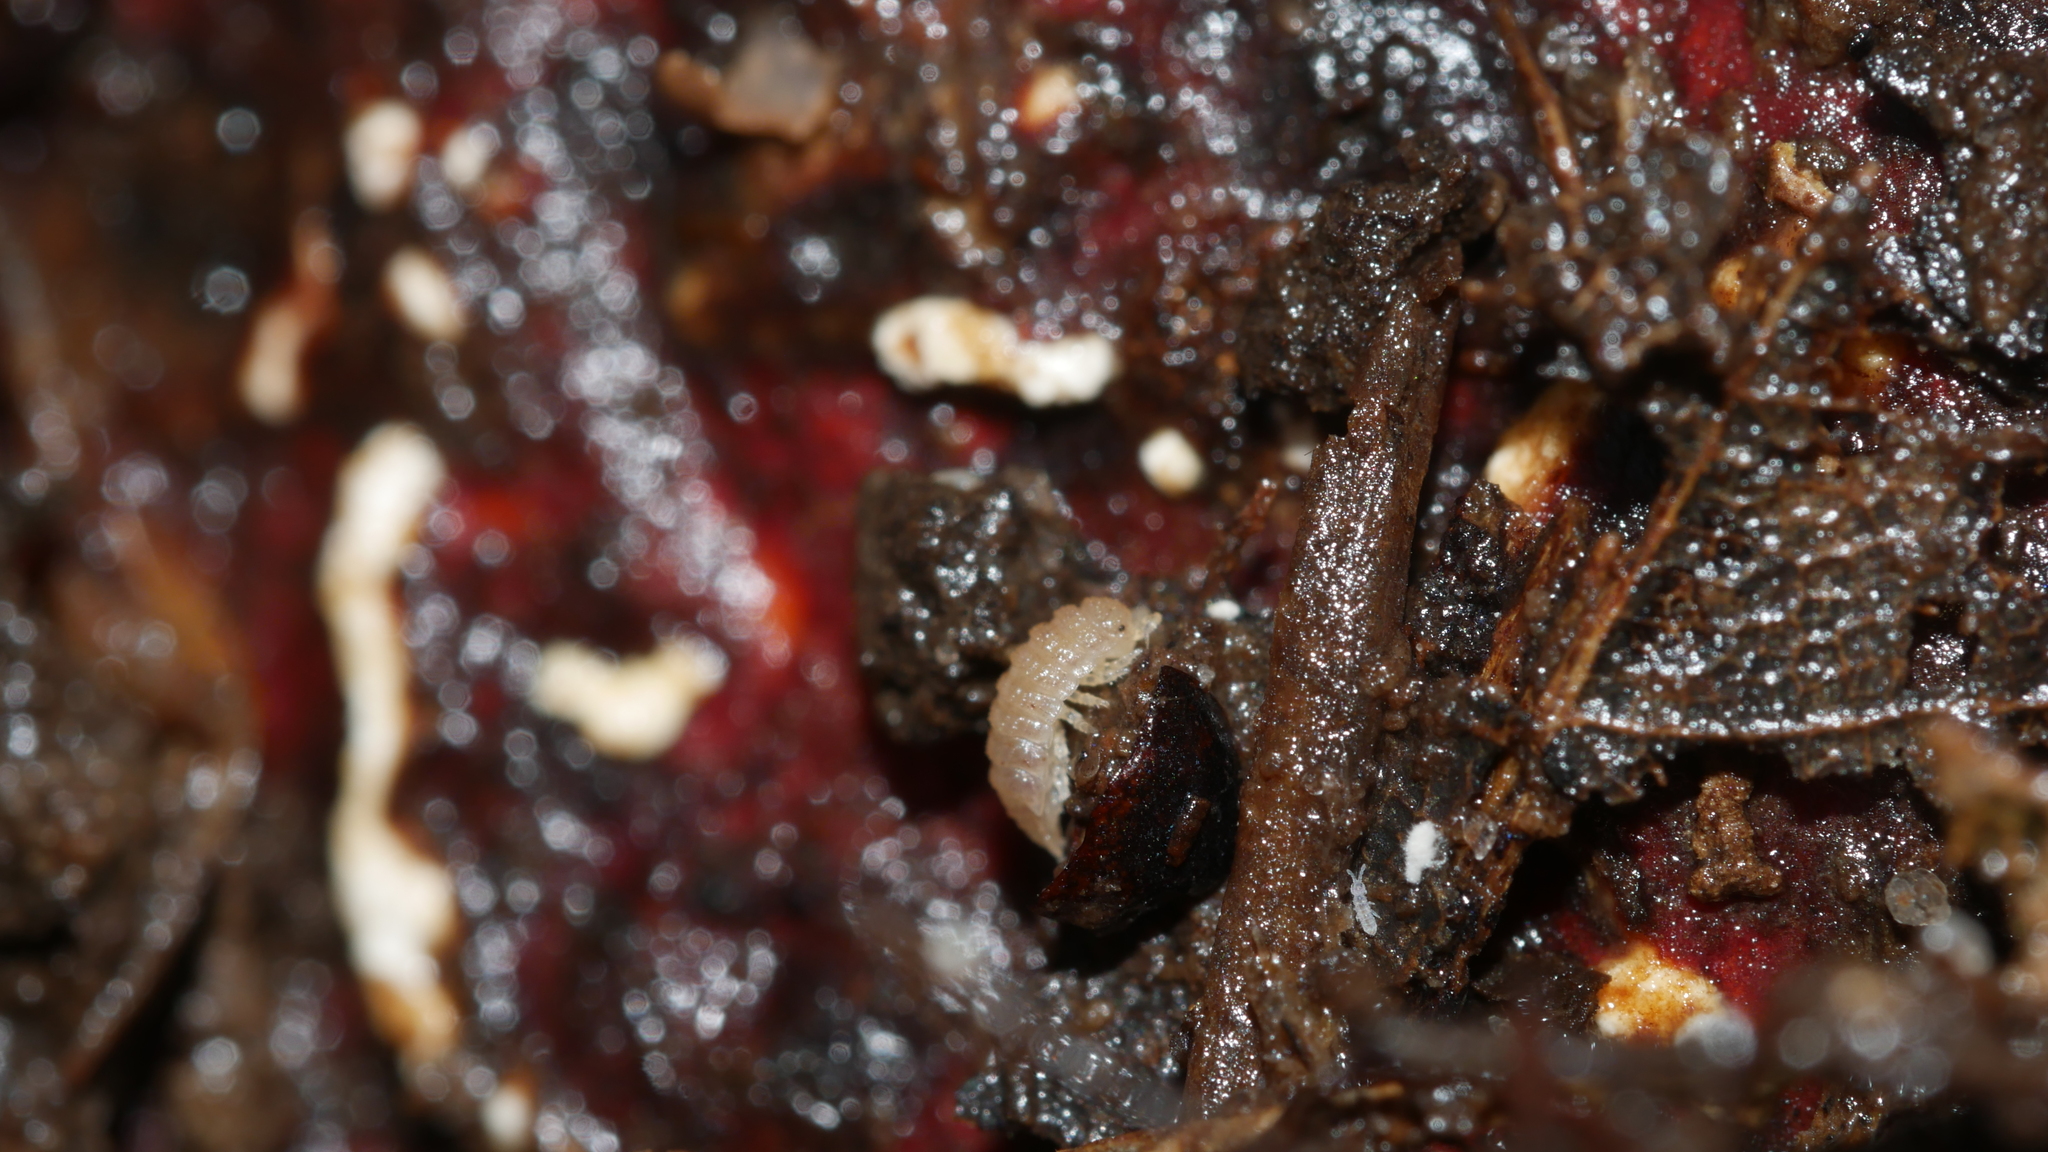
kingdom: Animalia
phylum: Arthropoda
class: Malacostraca
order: Isopoda
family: Trichoniscidae
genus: Haplophthalmus
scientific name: Haplophthalmus danicus
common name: Pillbug
